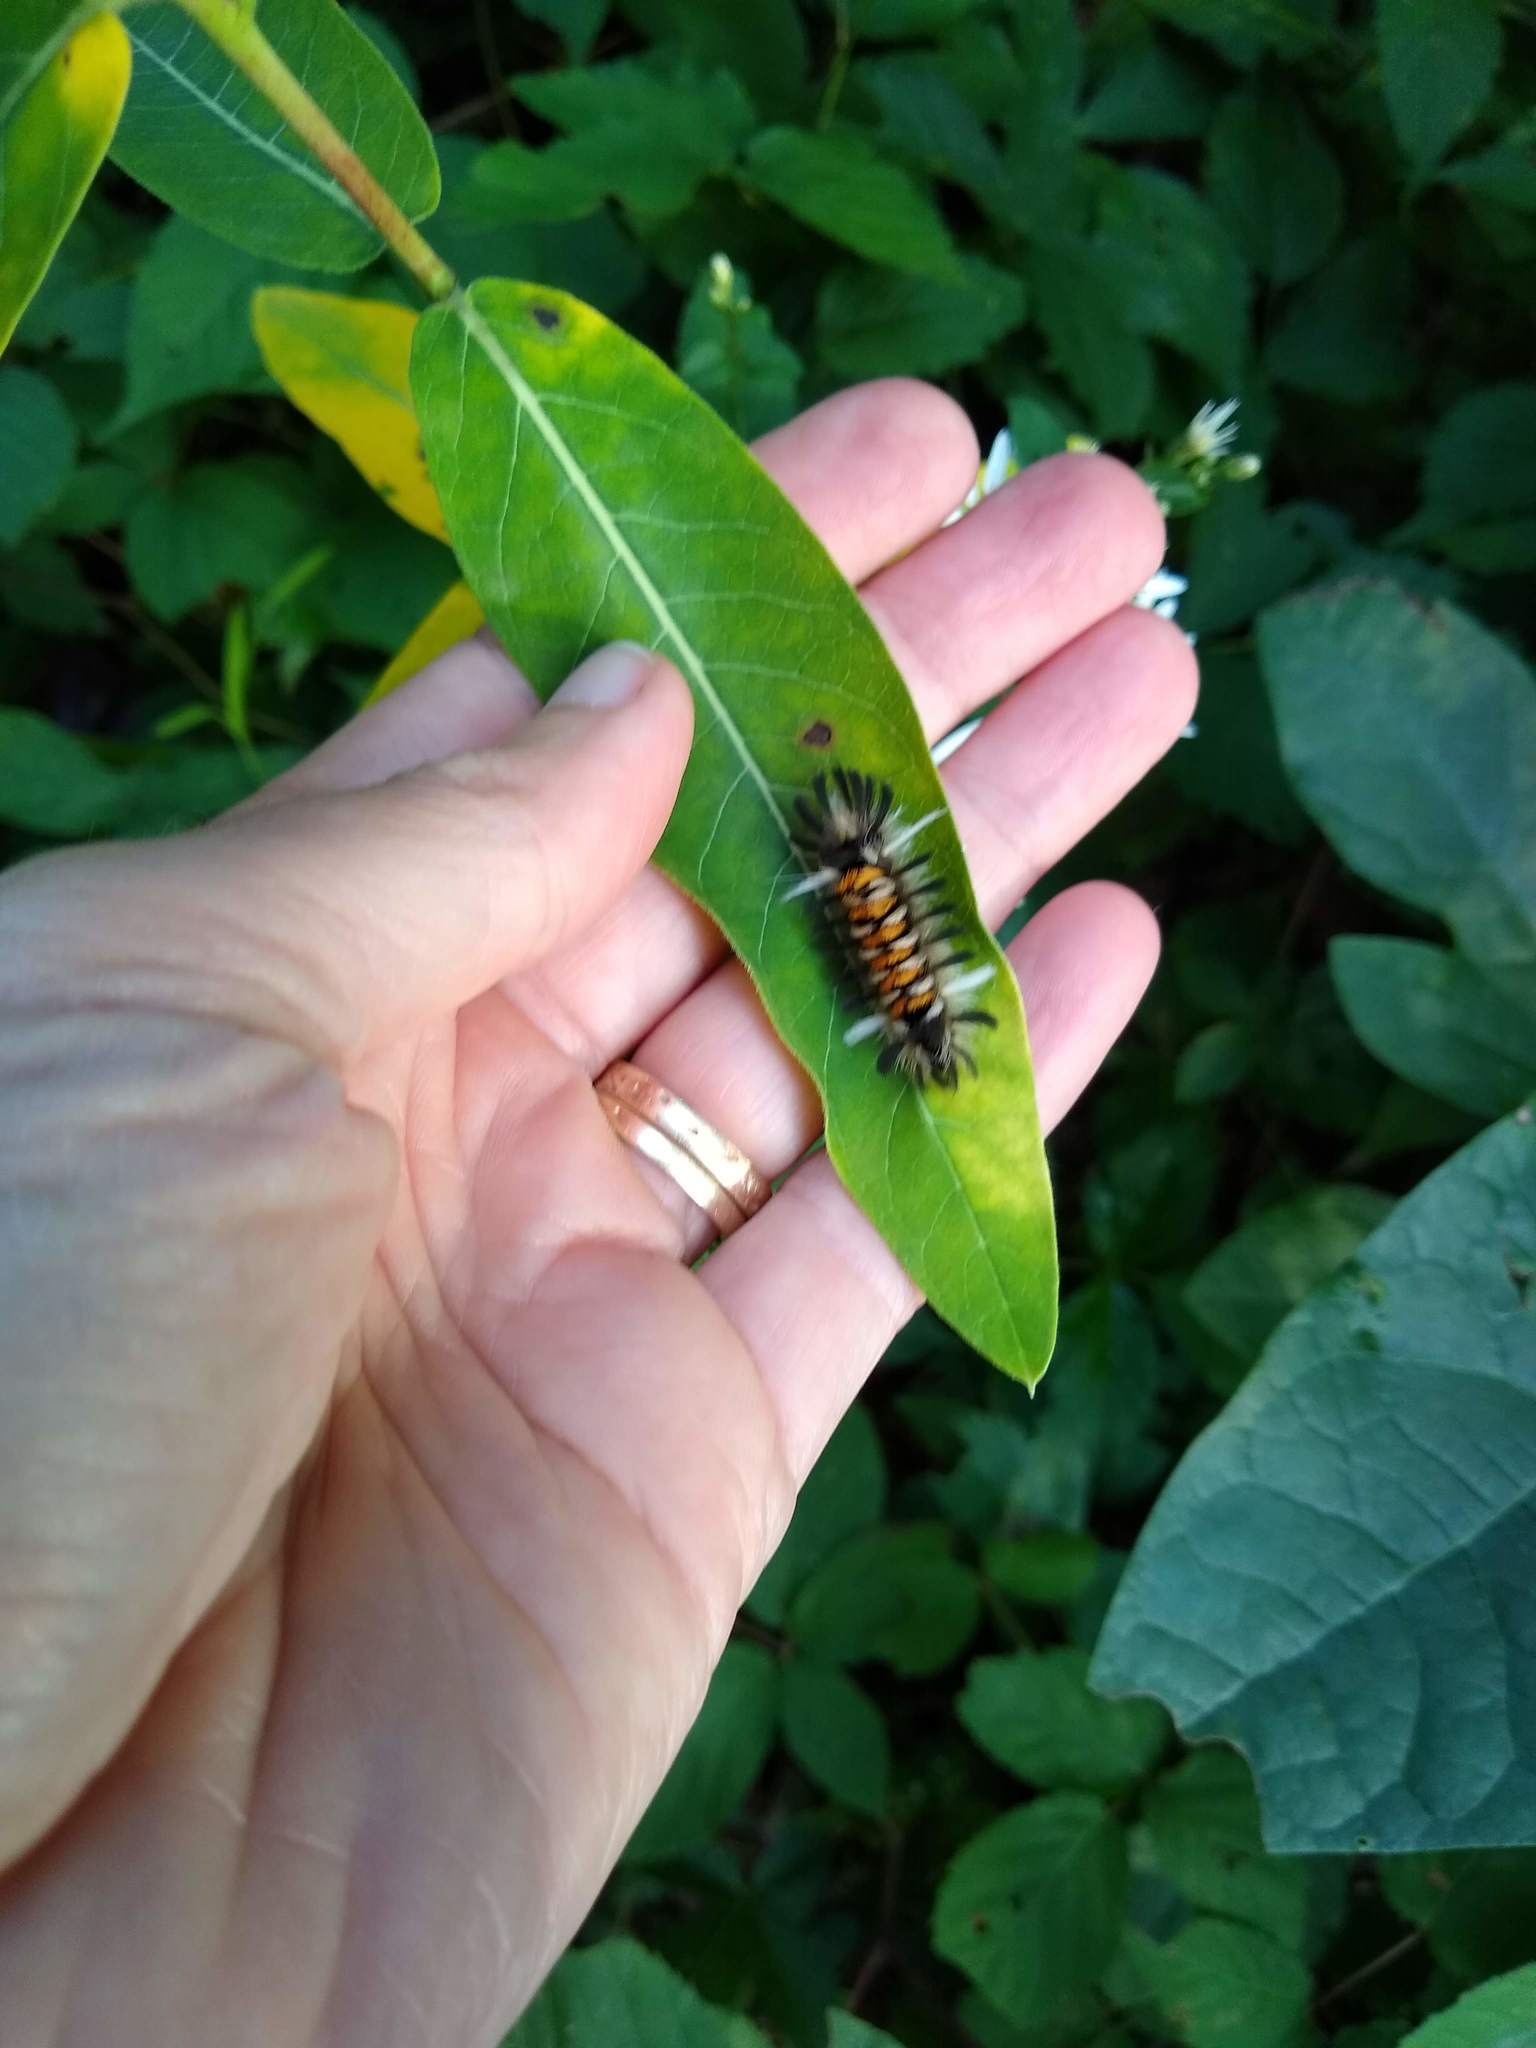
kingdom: Animalia
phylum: Arthropoda
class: Insecta
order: Lepidoptera
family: Erebidae
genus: Euchaetes
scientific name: Euchaetes egle
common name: Milkweed tussock moth
